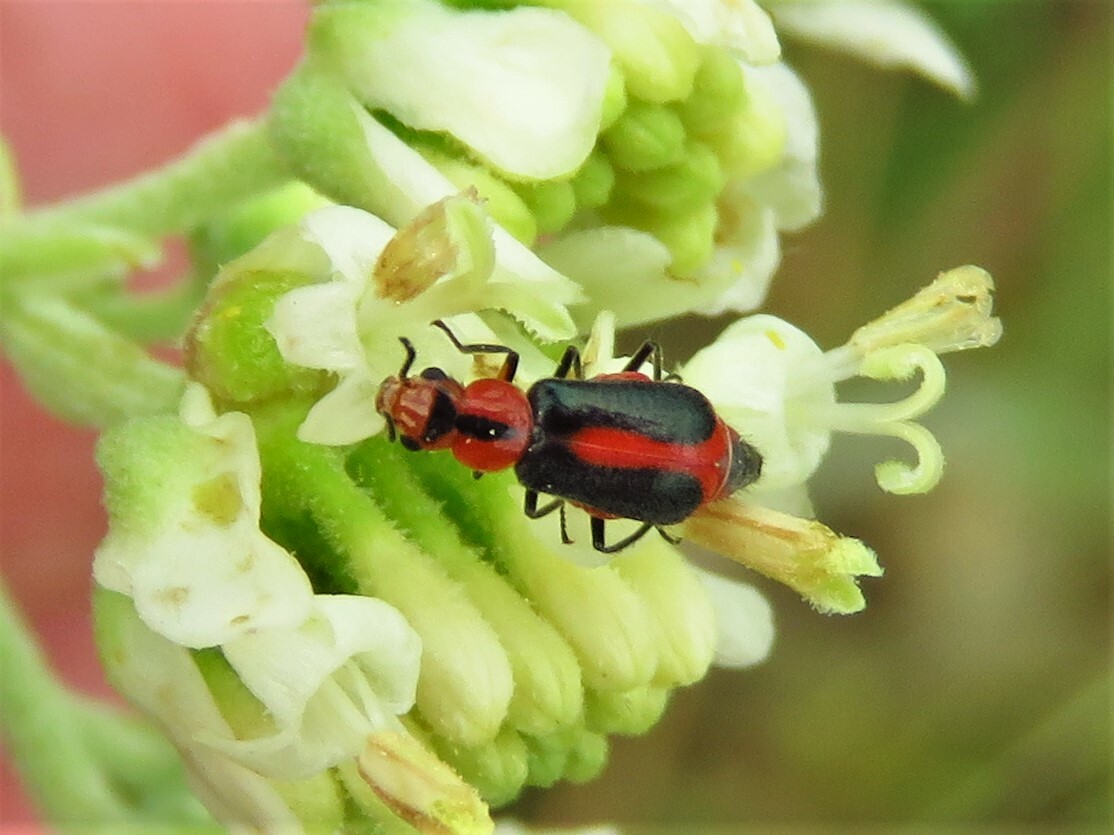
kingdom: Animalia
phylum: Arthropoda
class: Insecta
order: Coleoptera
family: Malachiidae
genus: Attalus
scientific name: Attalus
